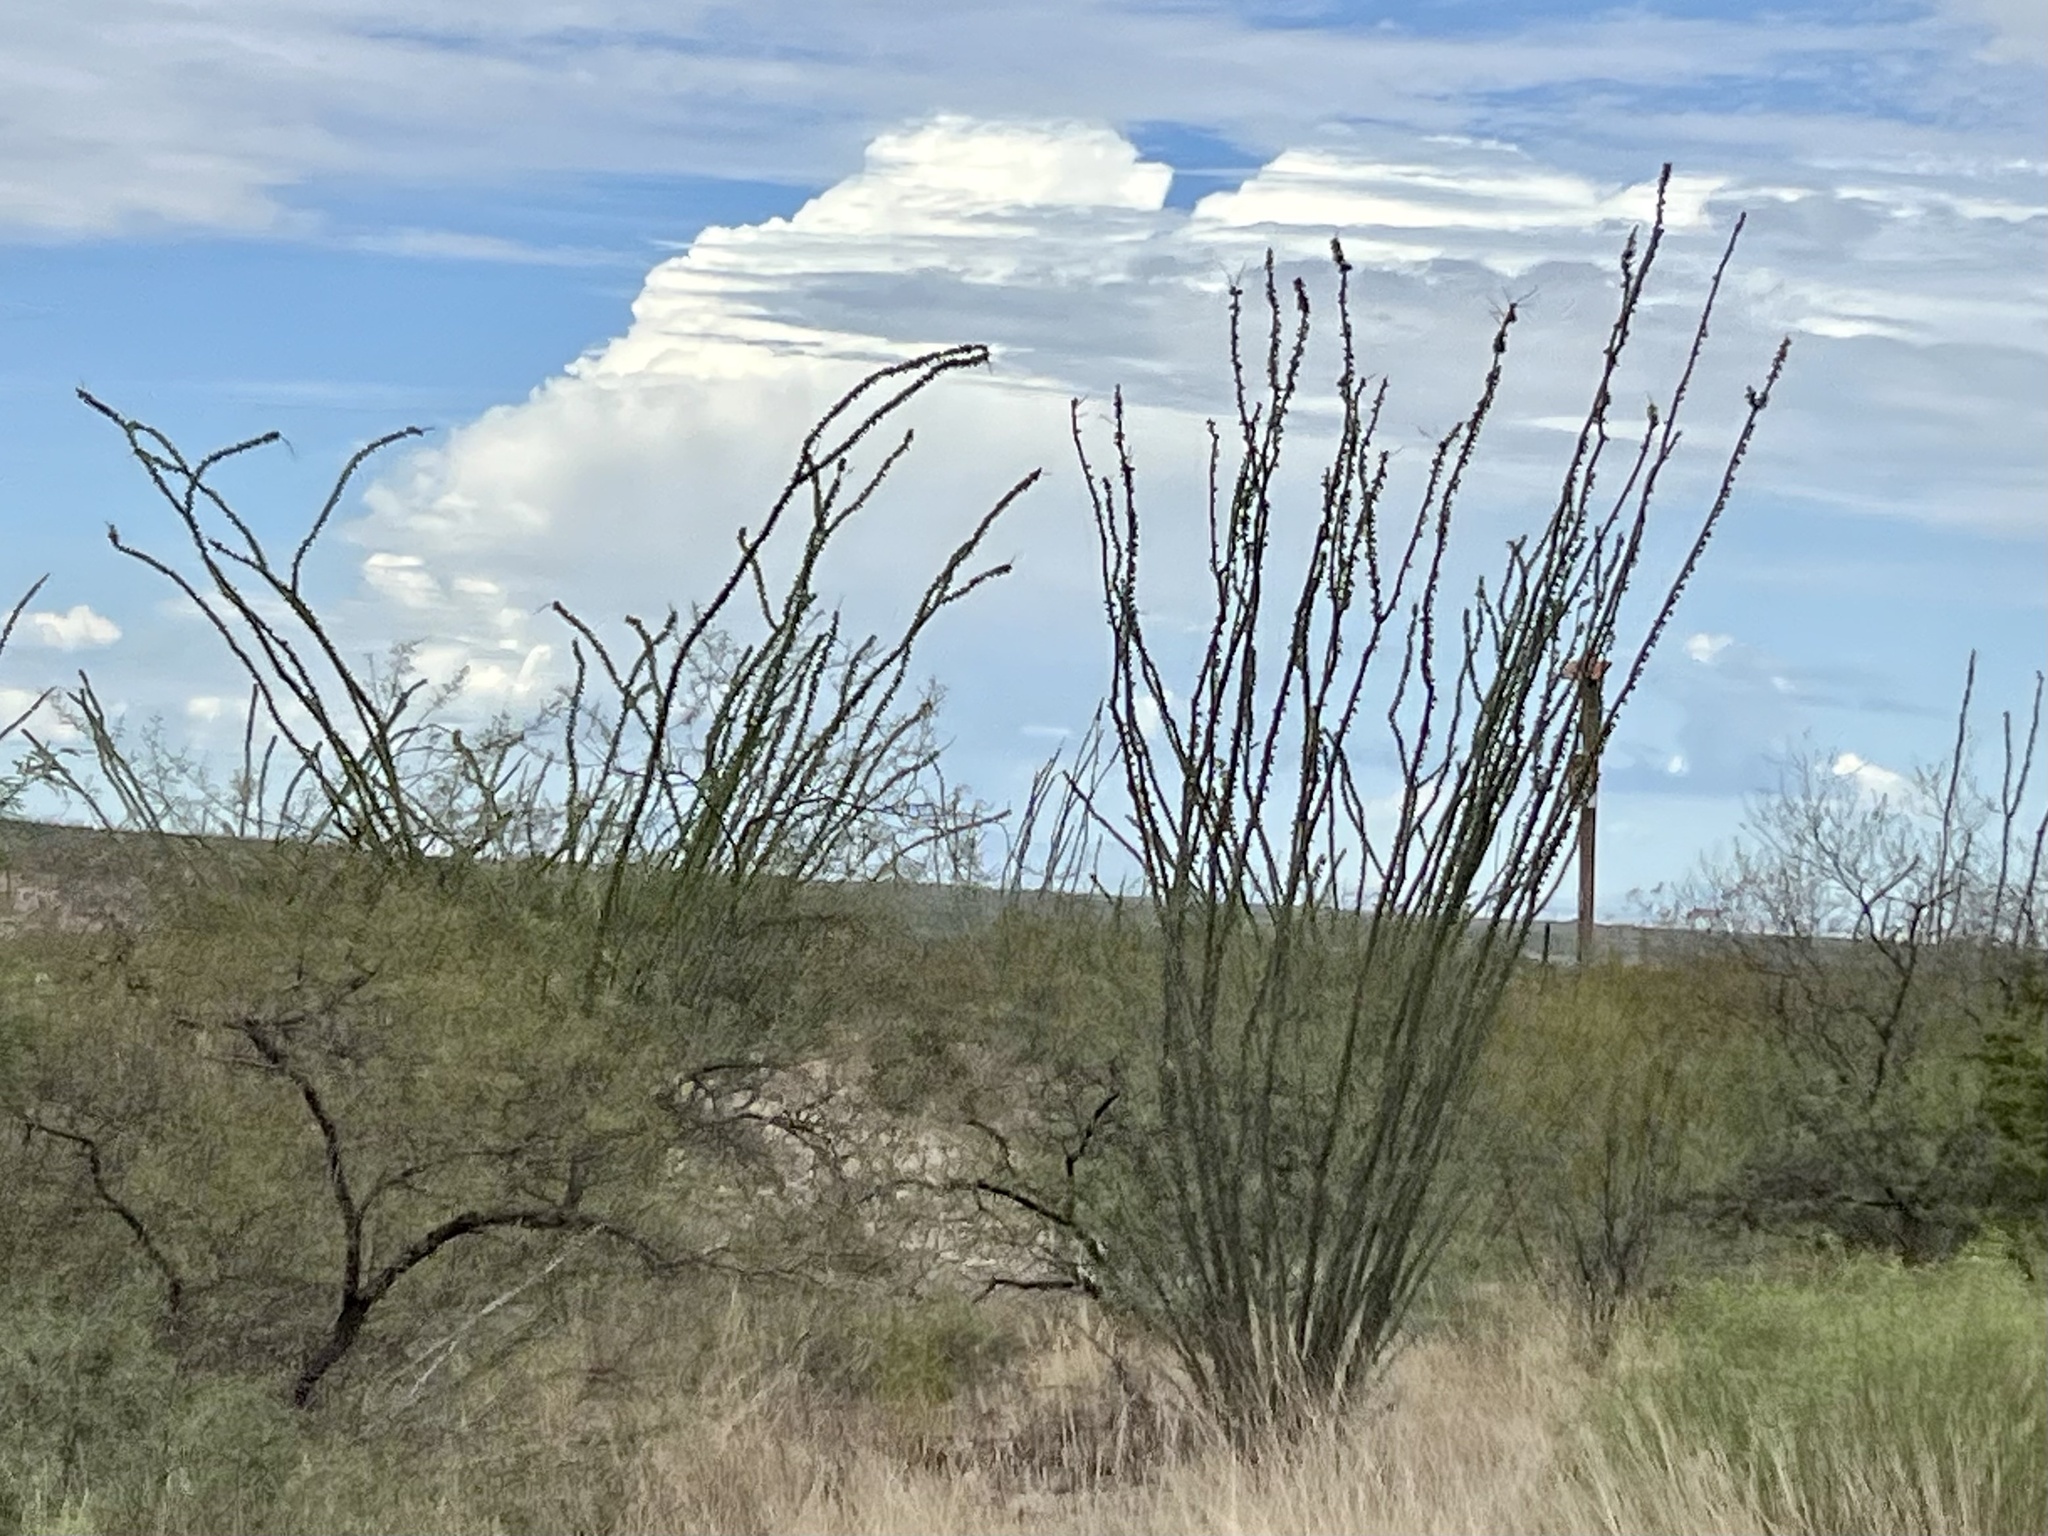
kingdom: Plantae
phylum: Tracheophyta
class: Magnoliopsida
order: Ericales
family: Fouquieriaceae
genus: Fouquieria
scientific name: Fouquieria splendens
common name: Vine-cactus
